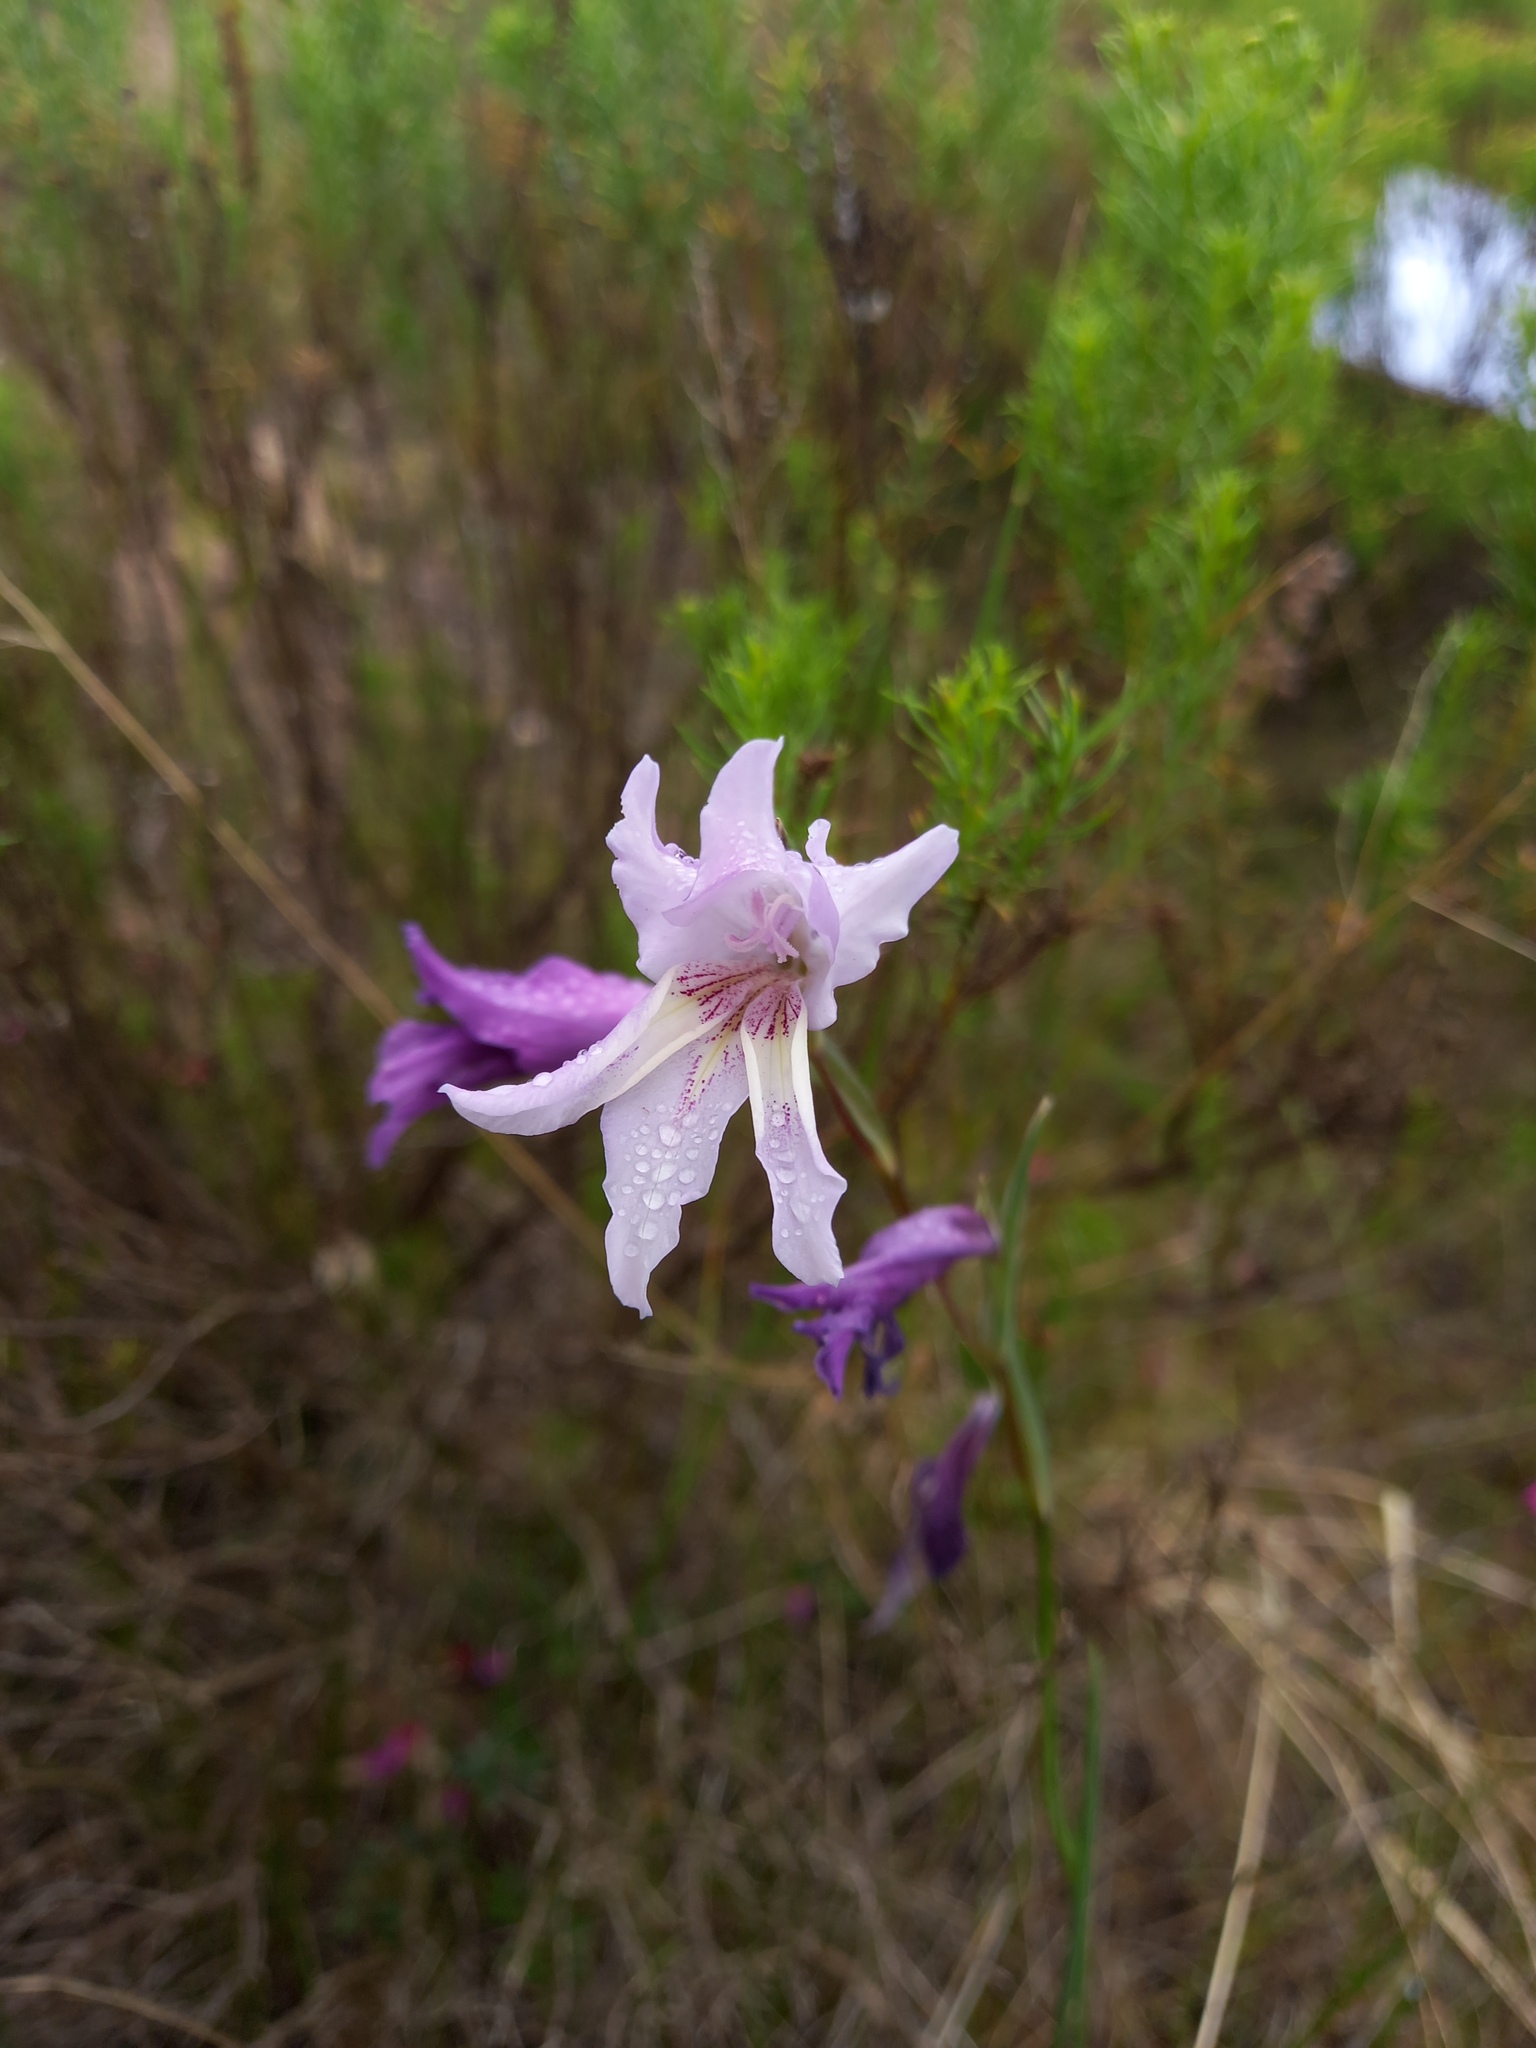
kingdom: Plantae
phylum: Tracheophyta
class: Liliopsida
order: Asparagales
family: Iridaceae
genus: Gladiolus
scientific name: Gladiolus carinatus
